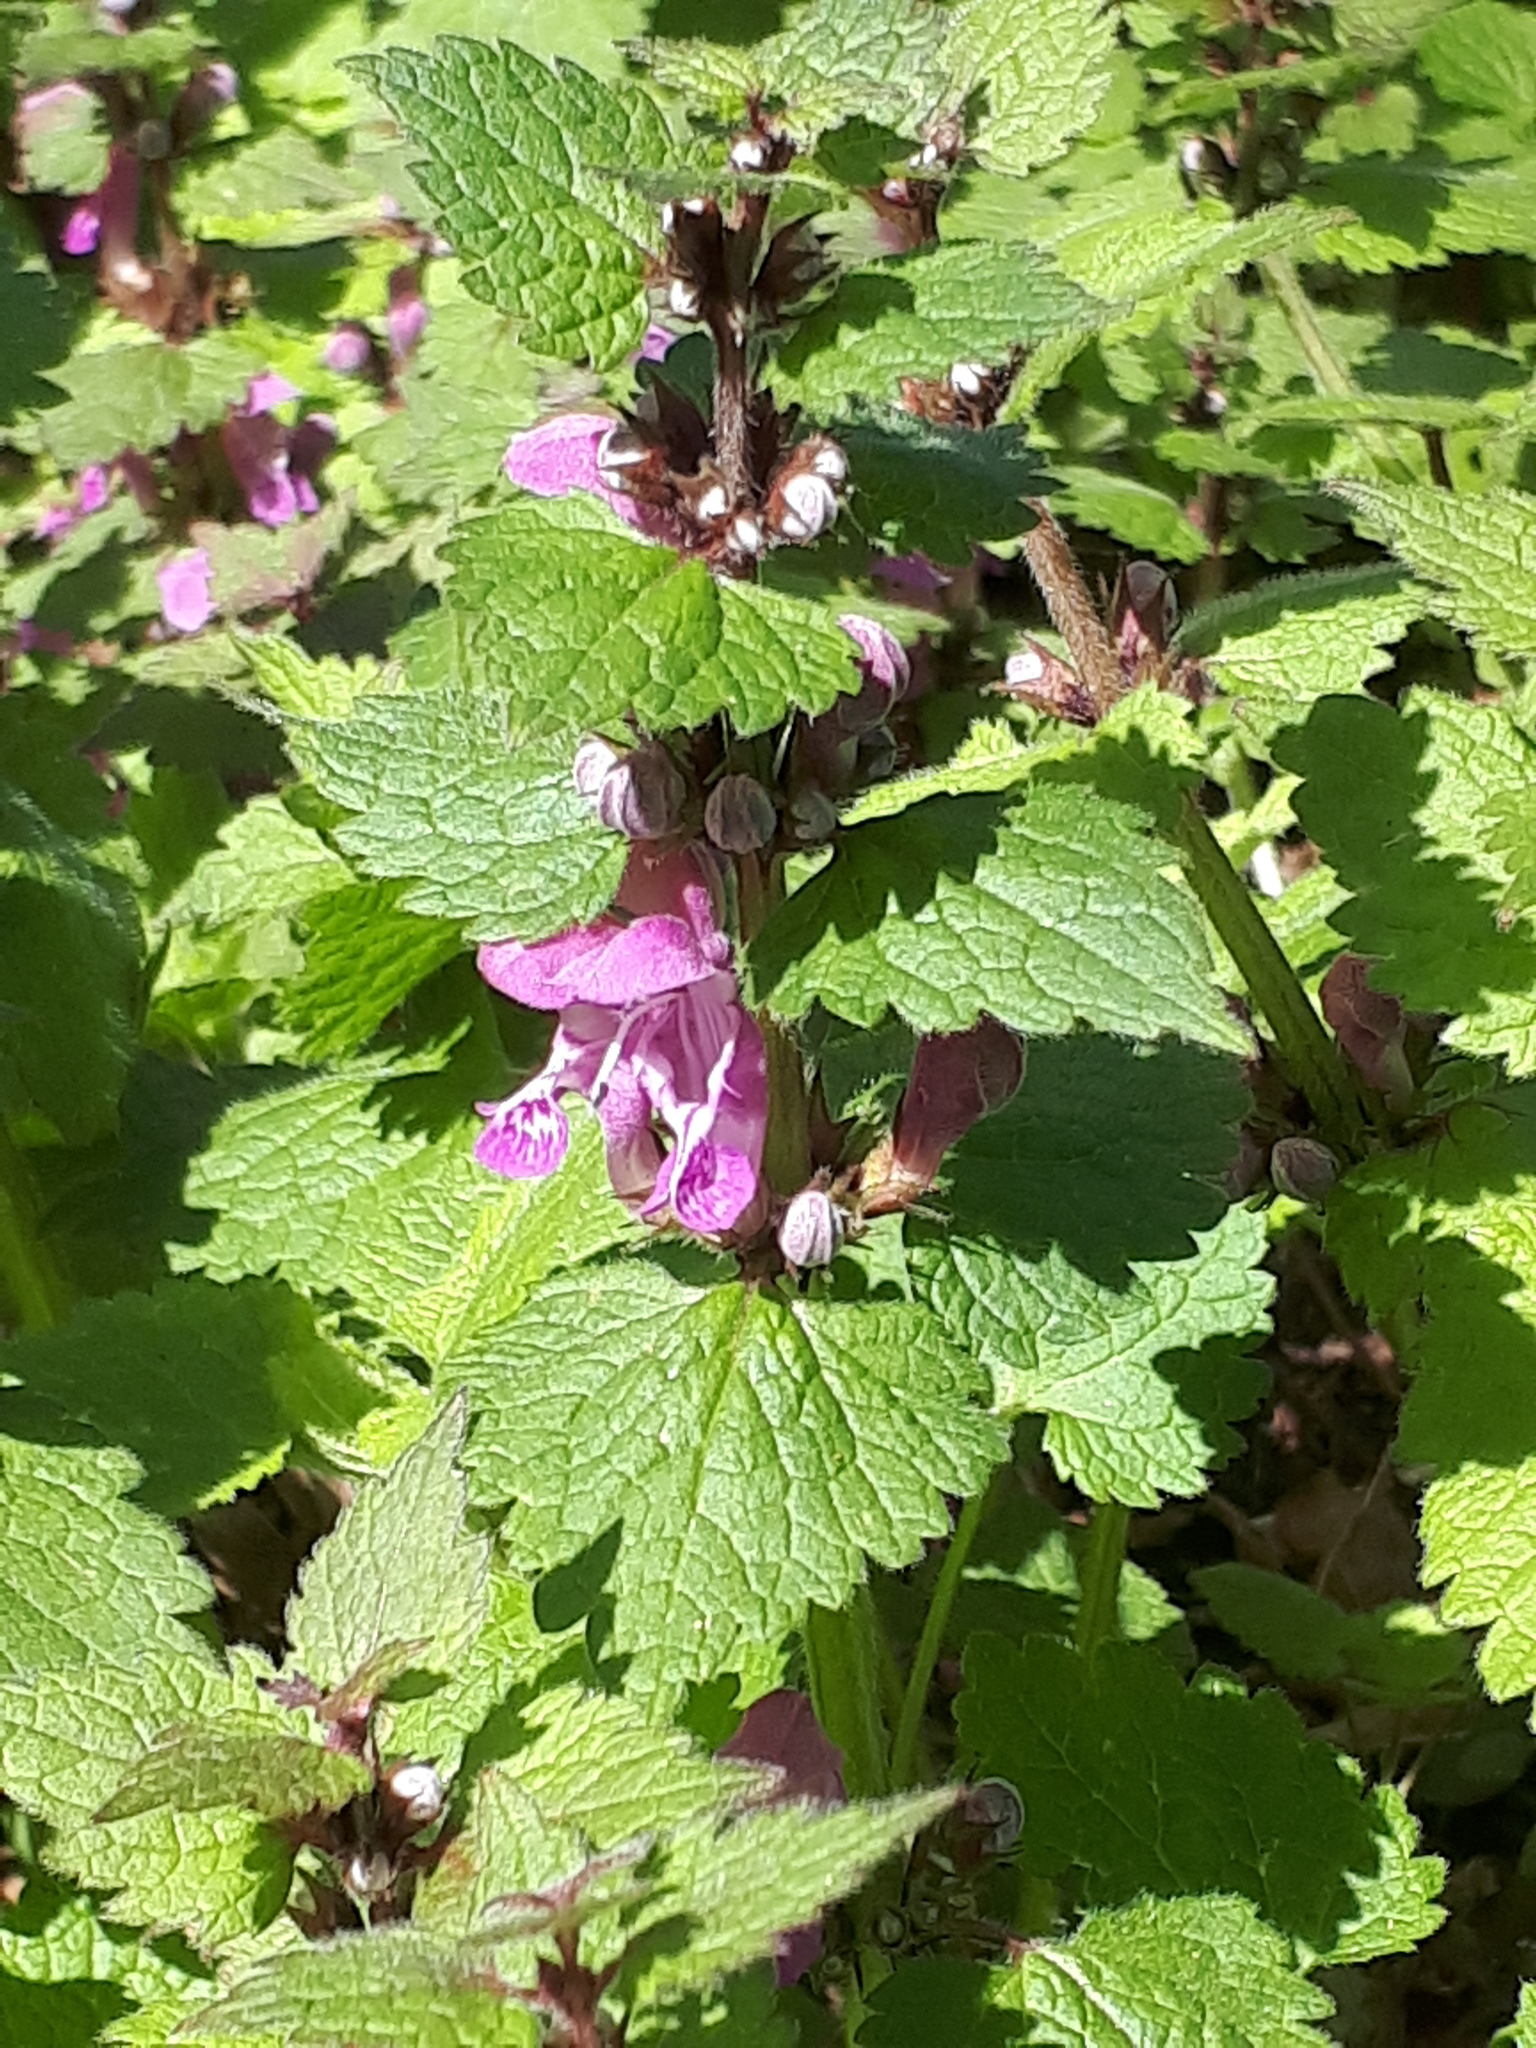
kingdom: Plantae
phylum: Tracheophyta
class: Magnoliopsida
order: Lamiales
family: Lamiaceae
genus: Lamium
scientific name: Lamium maculatum
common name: Spotted dead-nettle
